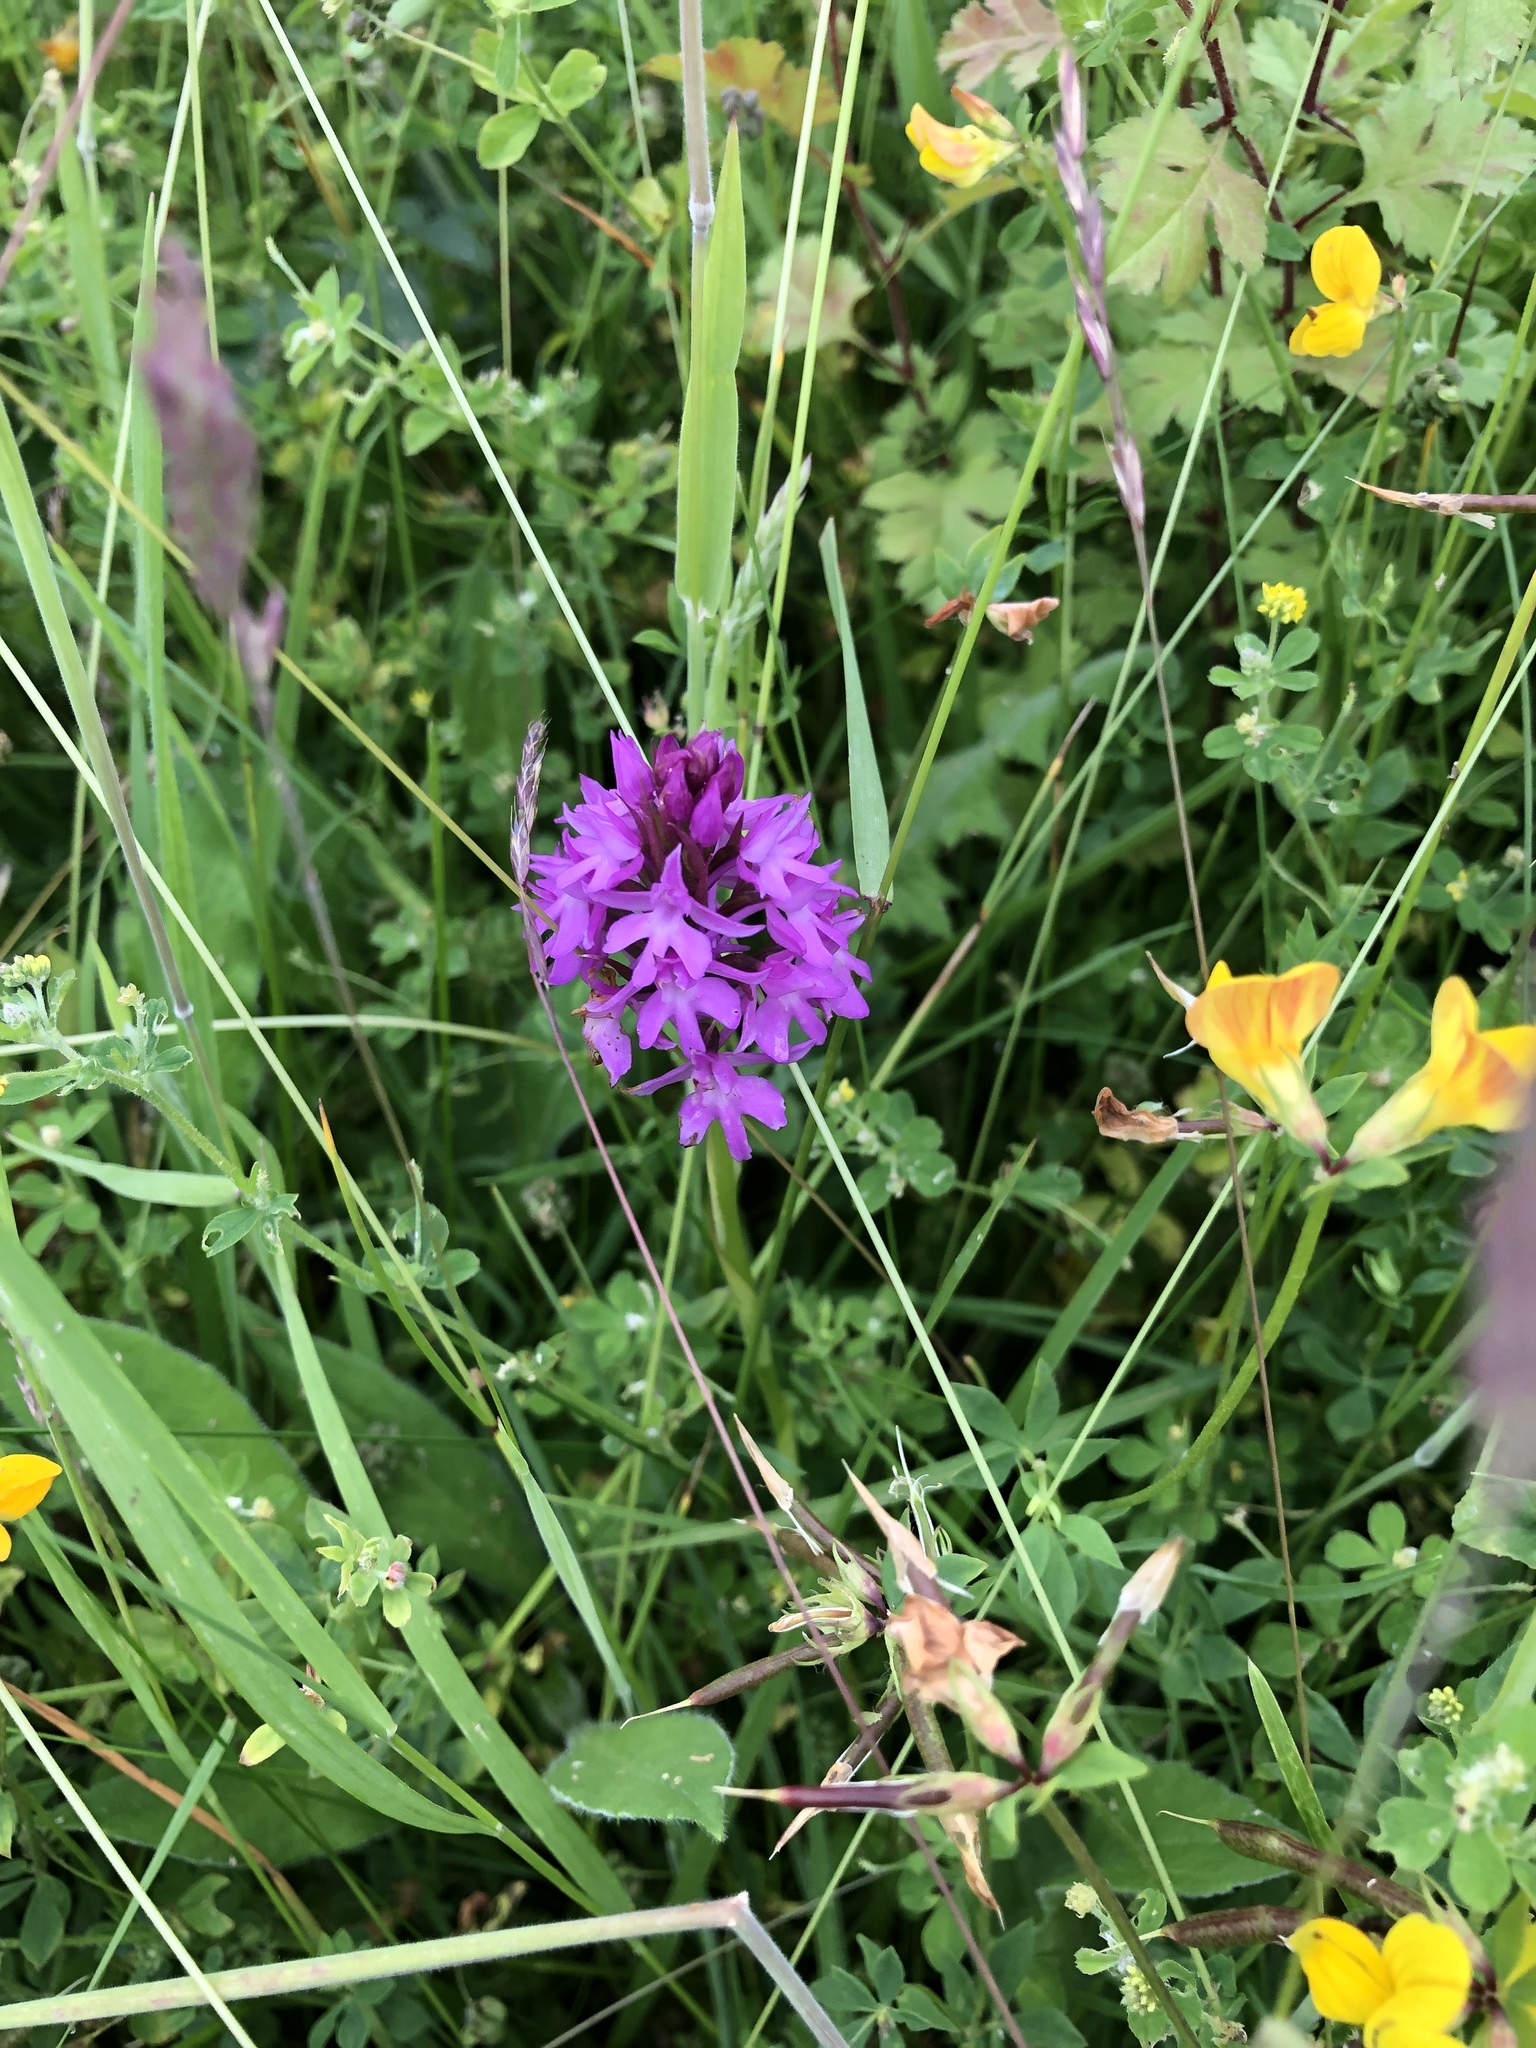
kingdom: Plantae
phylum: Tracheophyta
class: Liliopsida
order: Asparagales
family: Orchidaceae
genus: Anacamptis
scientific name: Anacamptis pyramidalis
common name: Pyramidal orchid
